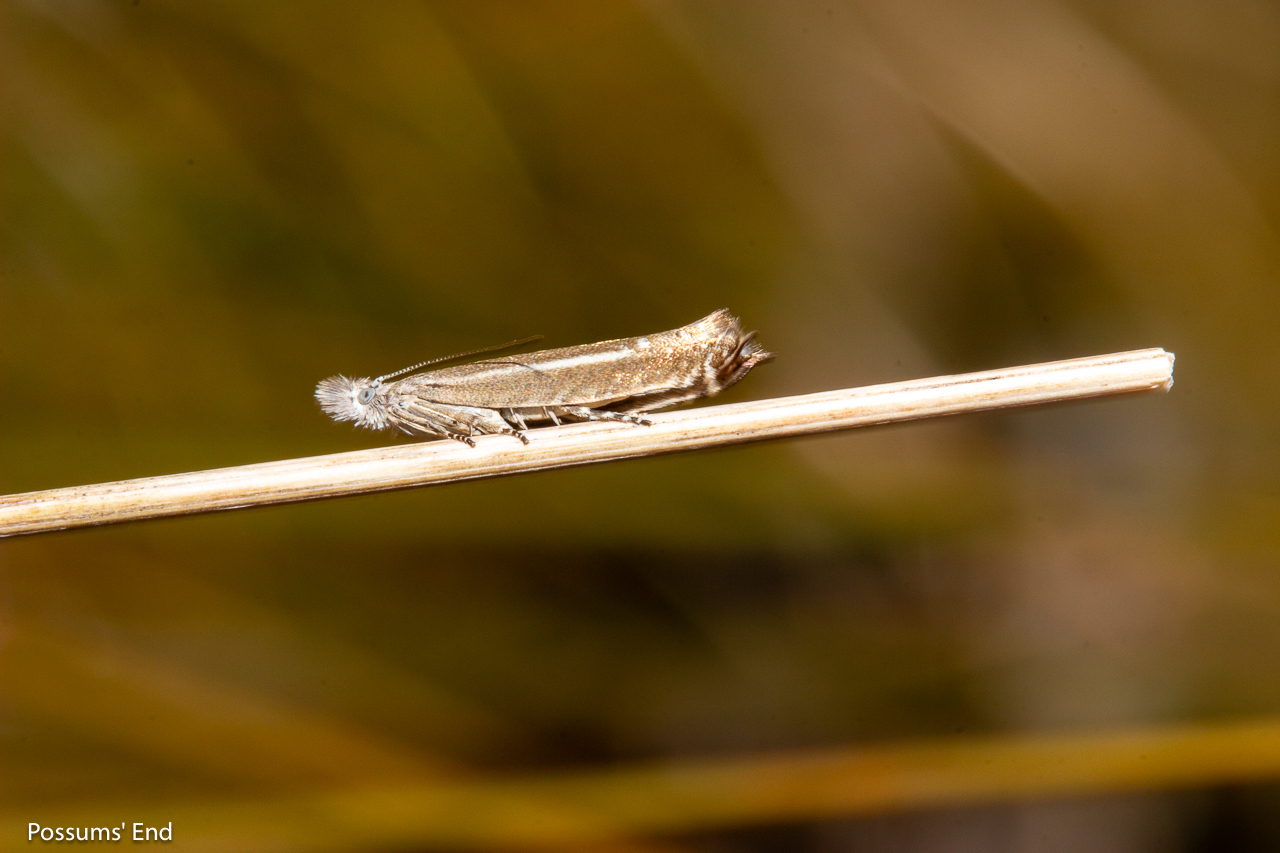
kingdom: Animalia
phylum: Arthropoda
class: Insecta
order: Lepidoptera
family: Glyphipterigidae
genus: Glyphipterix
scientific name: Glyphipterix barbata
